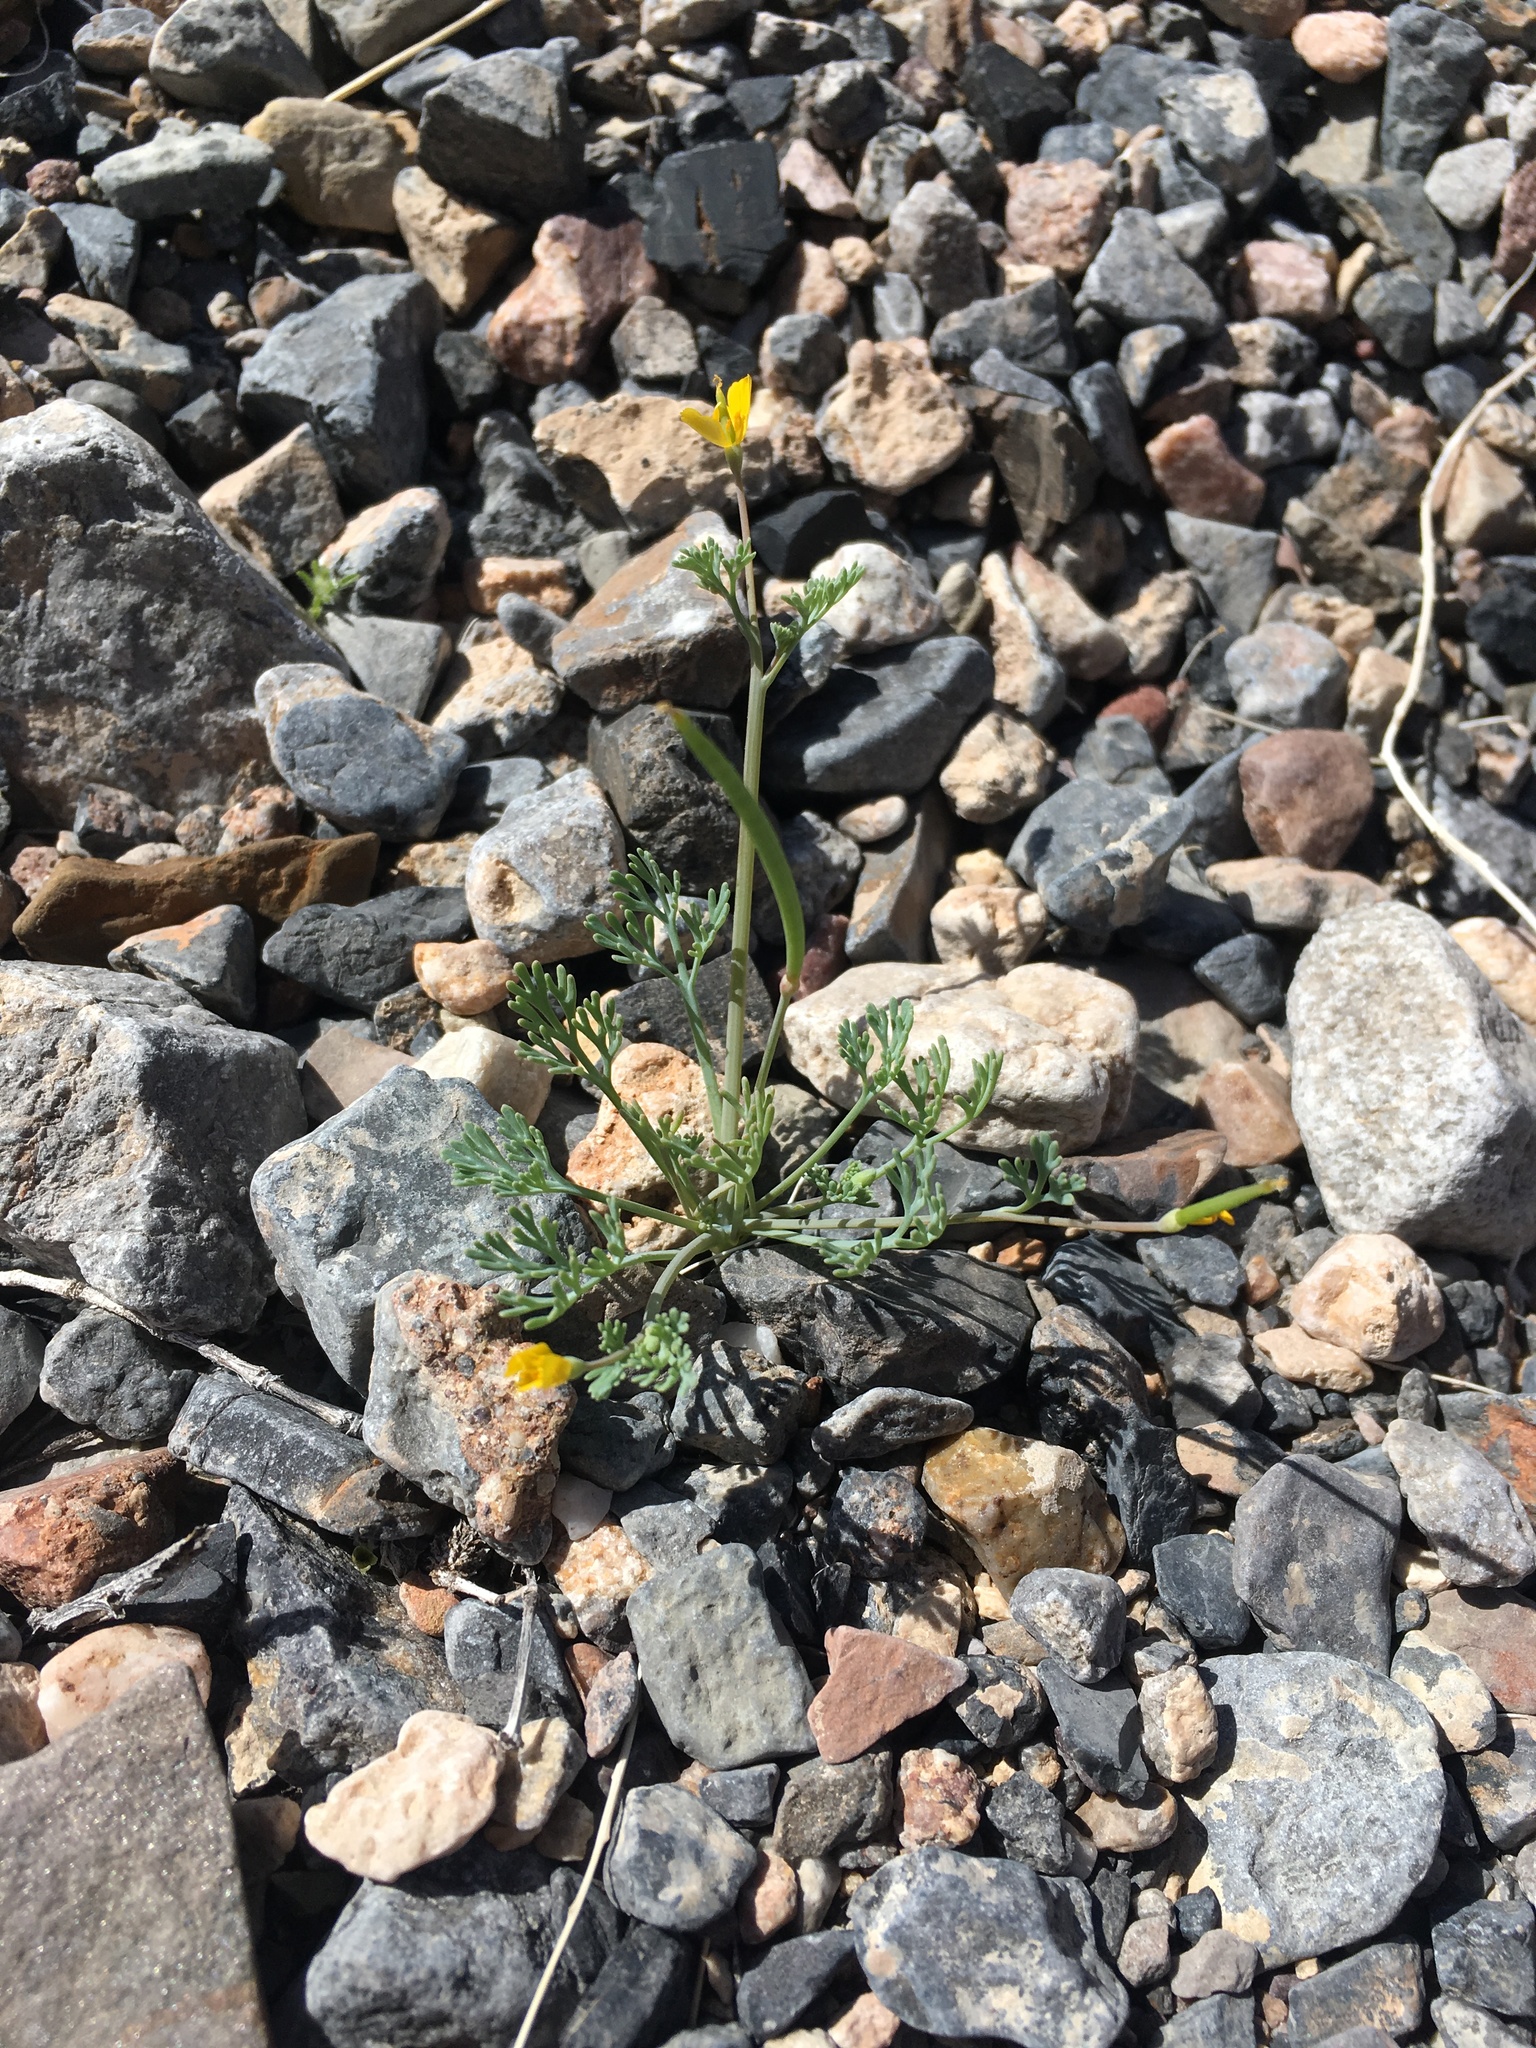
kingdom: Plantae
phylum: Tracheophyta
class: Magnoliopsida
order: Ranunculales
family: Papaveraceae
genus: Eschscholzia
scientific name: Eschscholzia minutiflora
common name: Small-flower california-poppy
